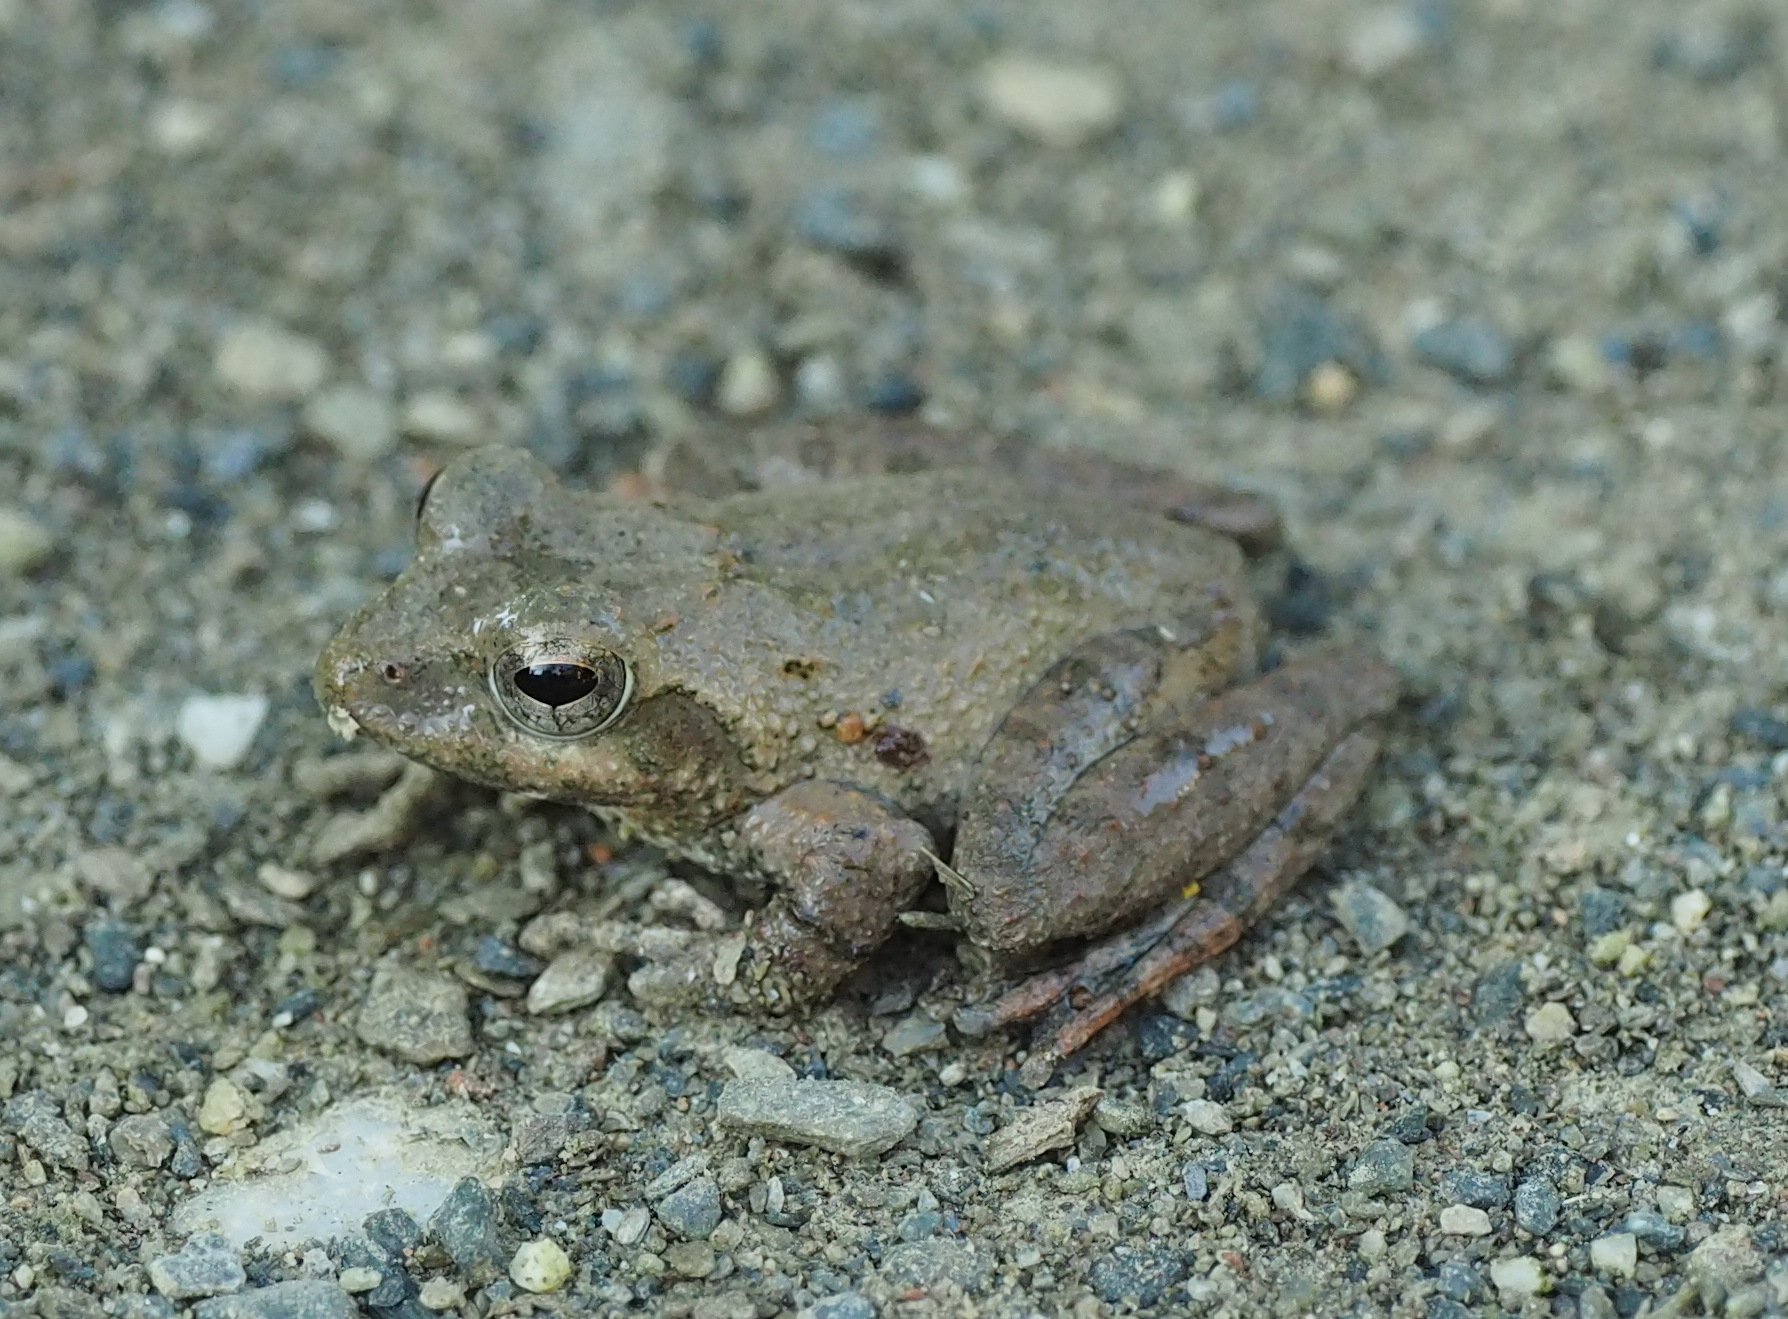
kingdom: Animalia
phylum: Chordata
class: Amphibia
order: Anura
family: Rhacophoridae
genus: Buergeria
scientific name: Buergeria otai
